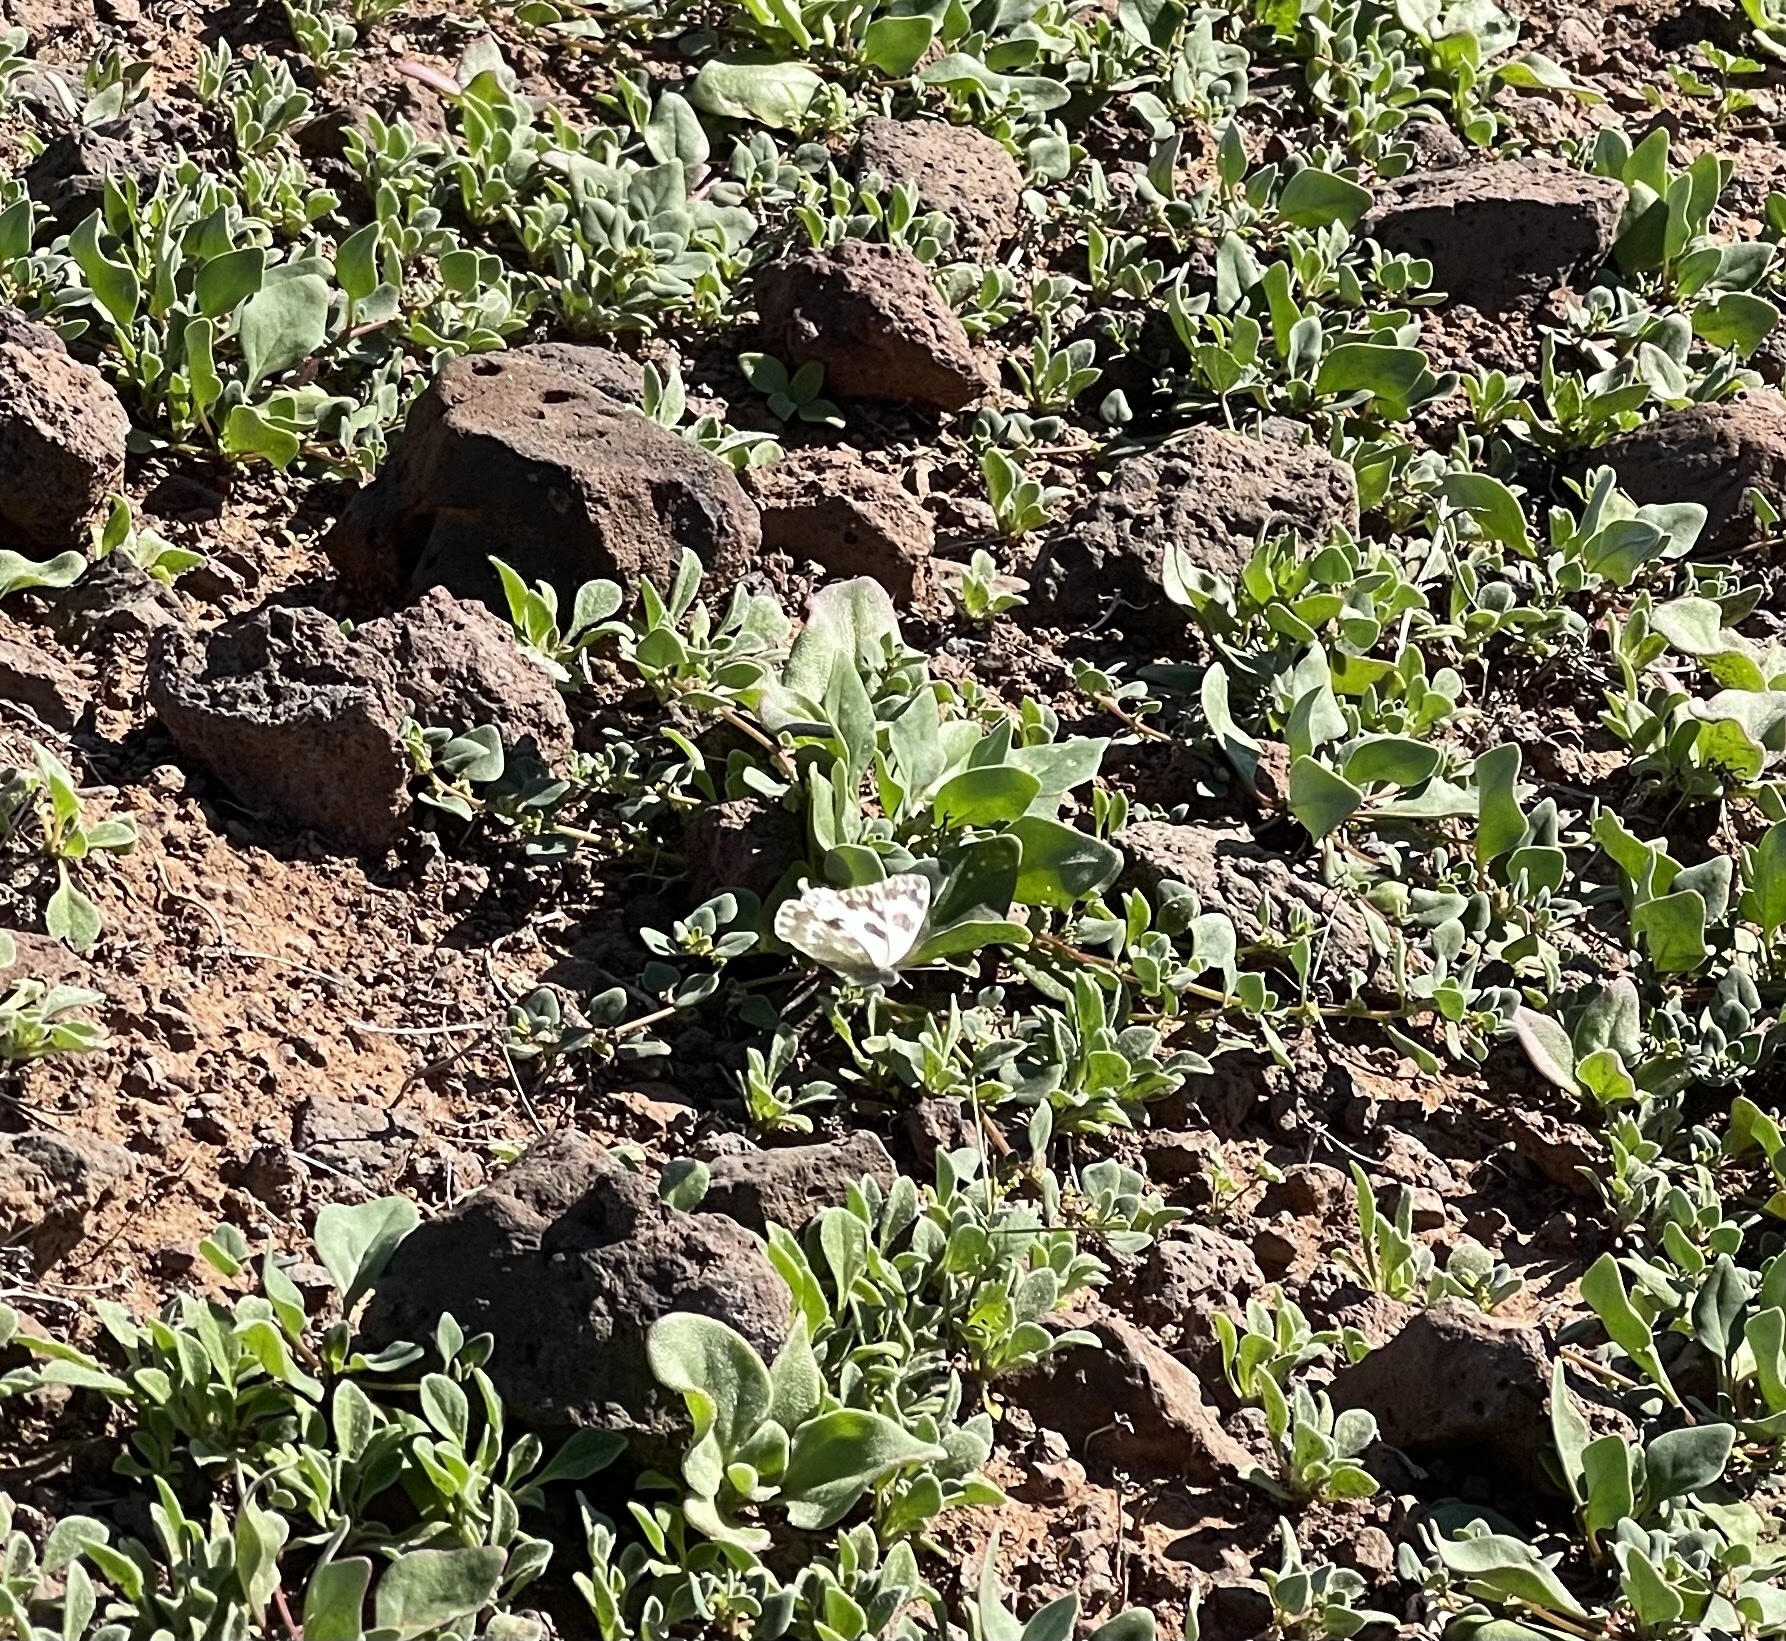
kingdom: Animalia
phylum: Arthropoda
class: Insecta
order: Lepidoptera
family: Pieridae
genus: Pontia
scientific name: Pontia daplidice
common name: Bath white
